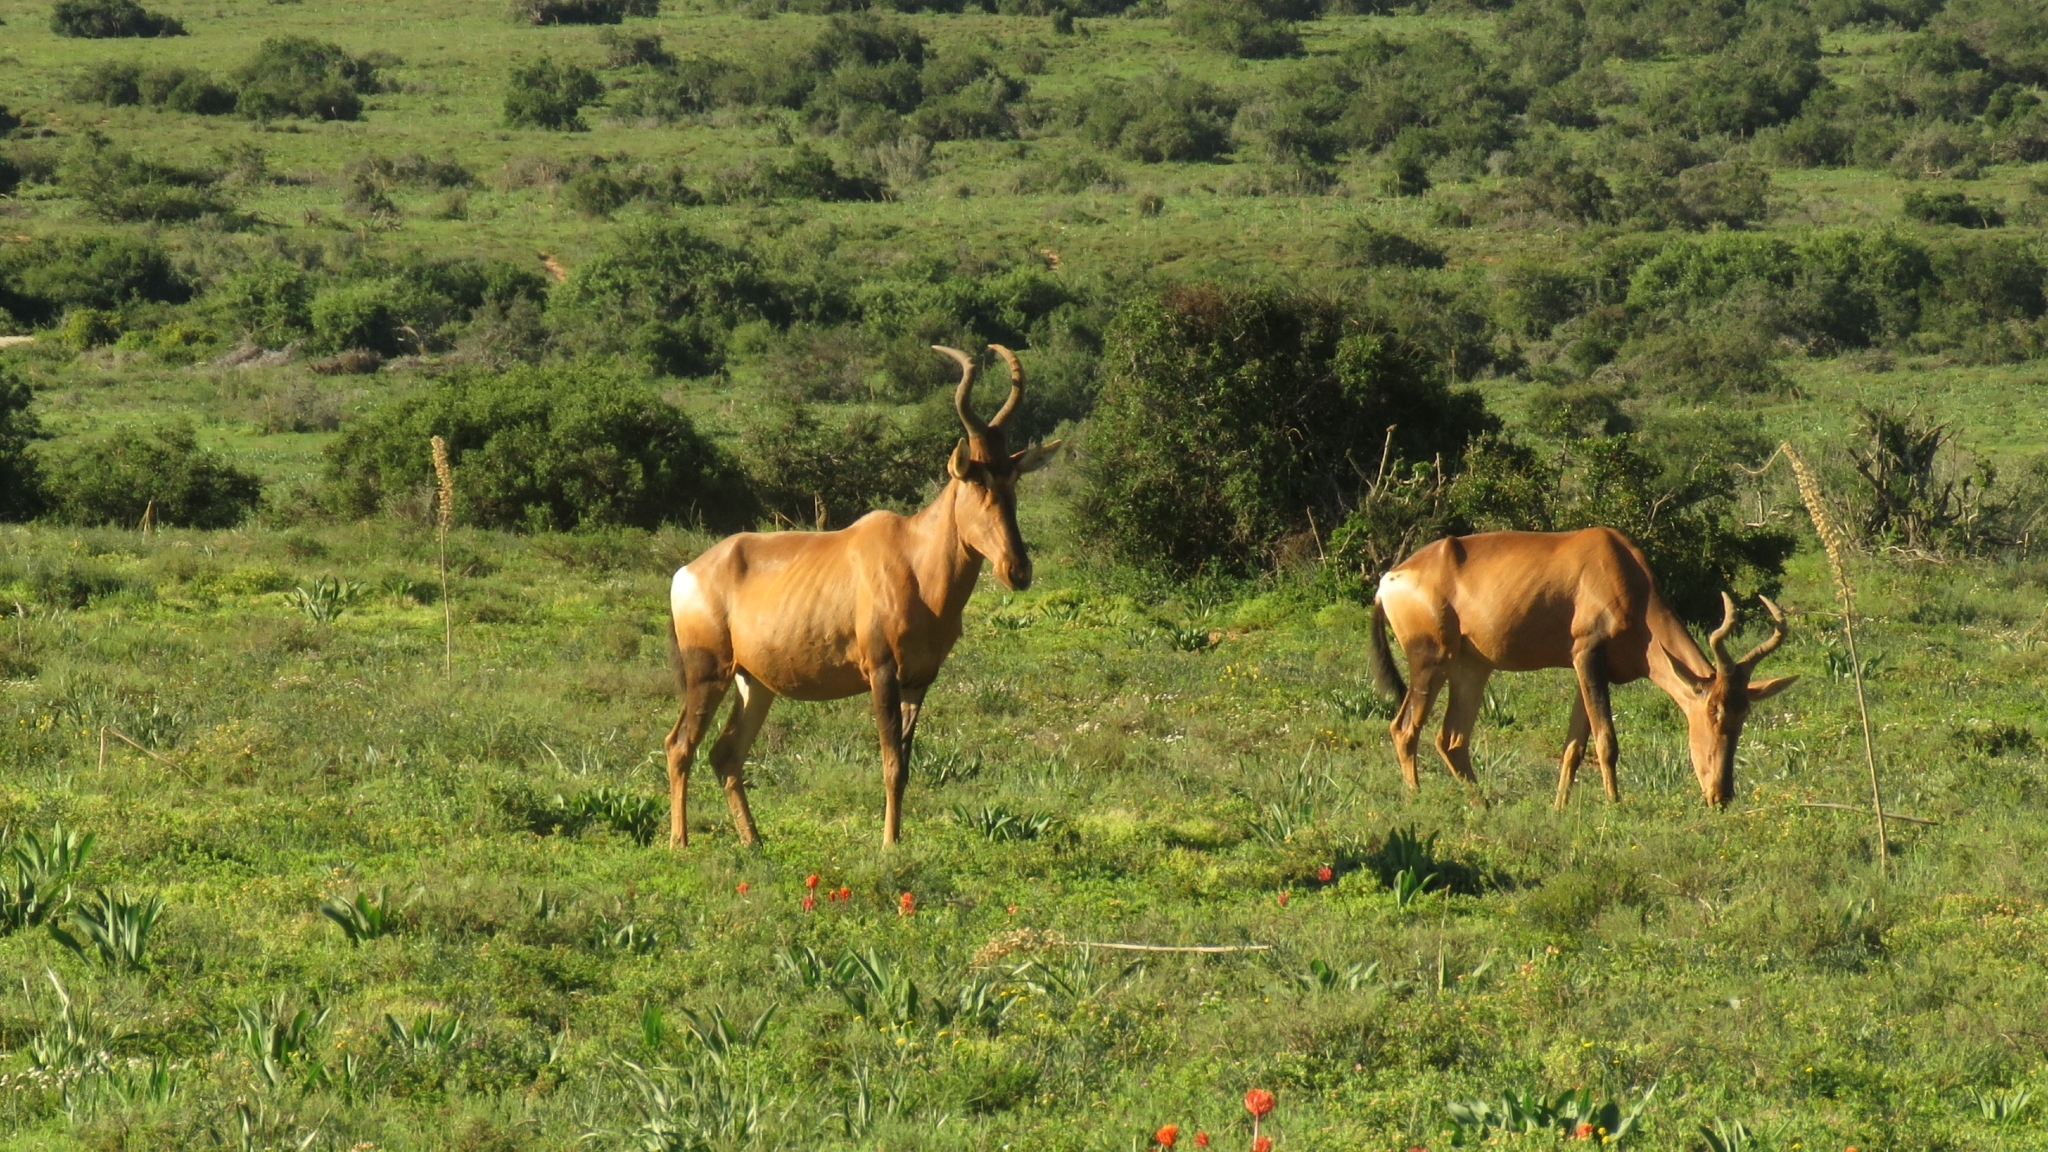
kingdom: Animalia
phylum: Chordata
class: Mammalia
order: Artiodactyla
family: Bovidae
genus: Alcelaphus
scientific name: Alcelaphus caama
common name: Red hartebeest
